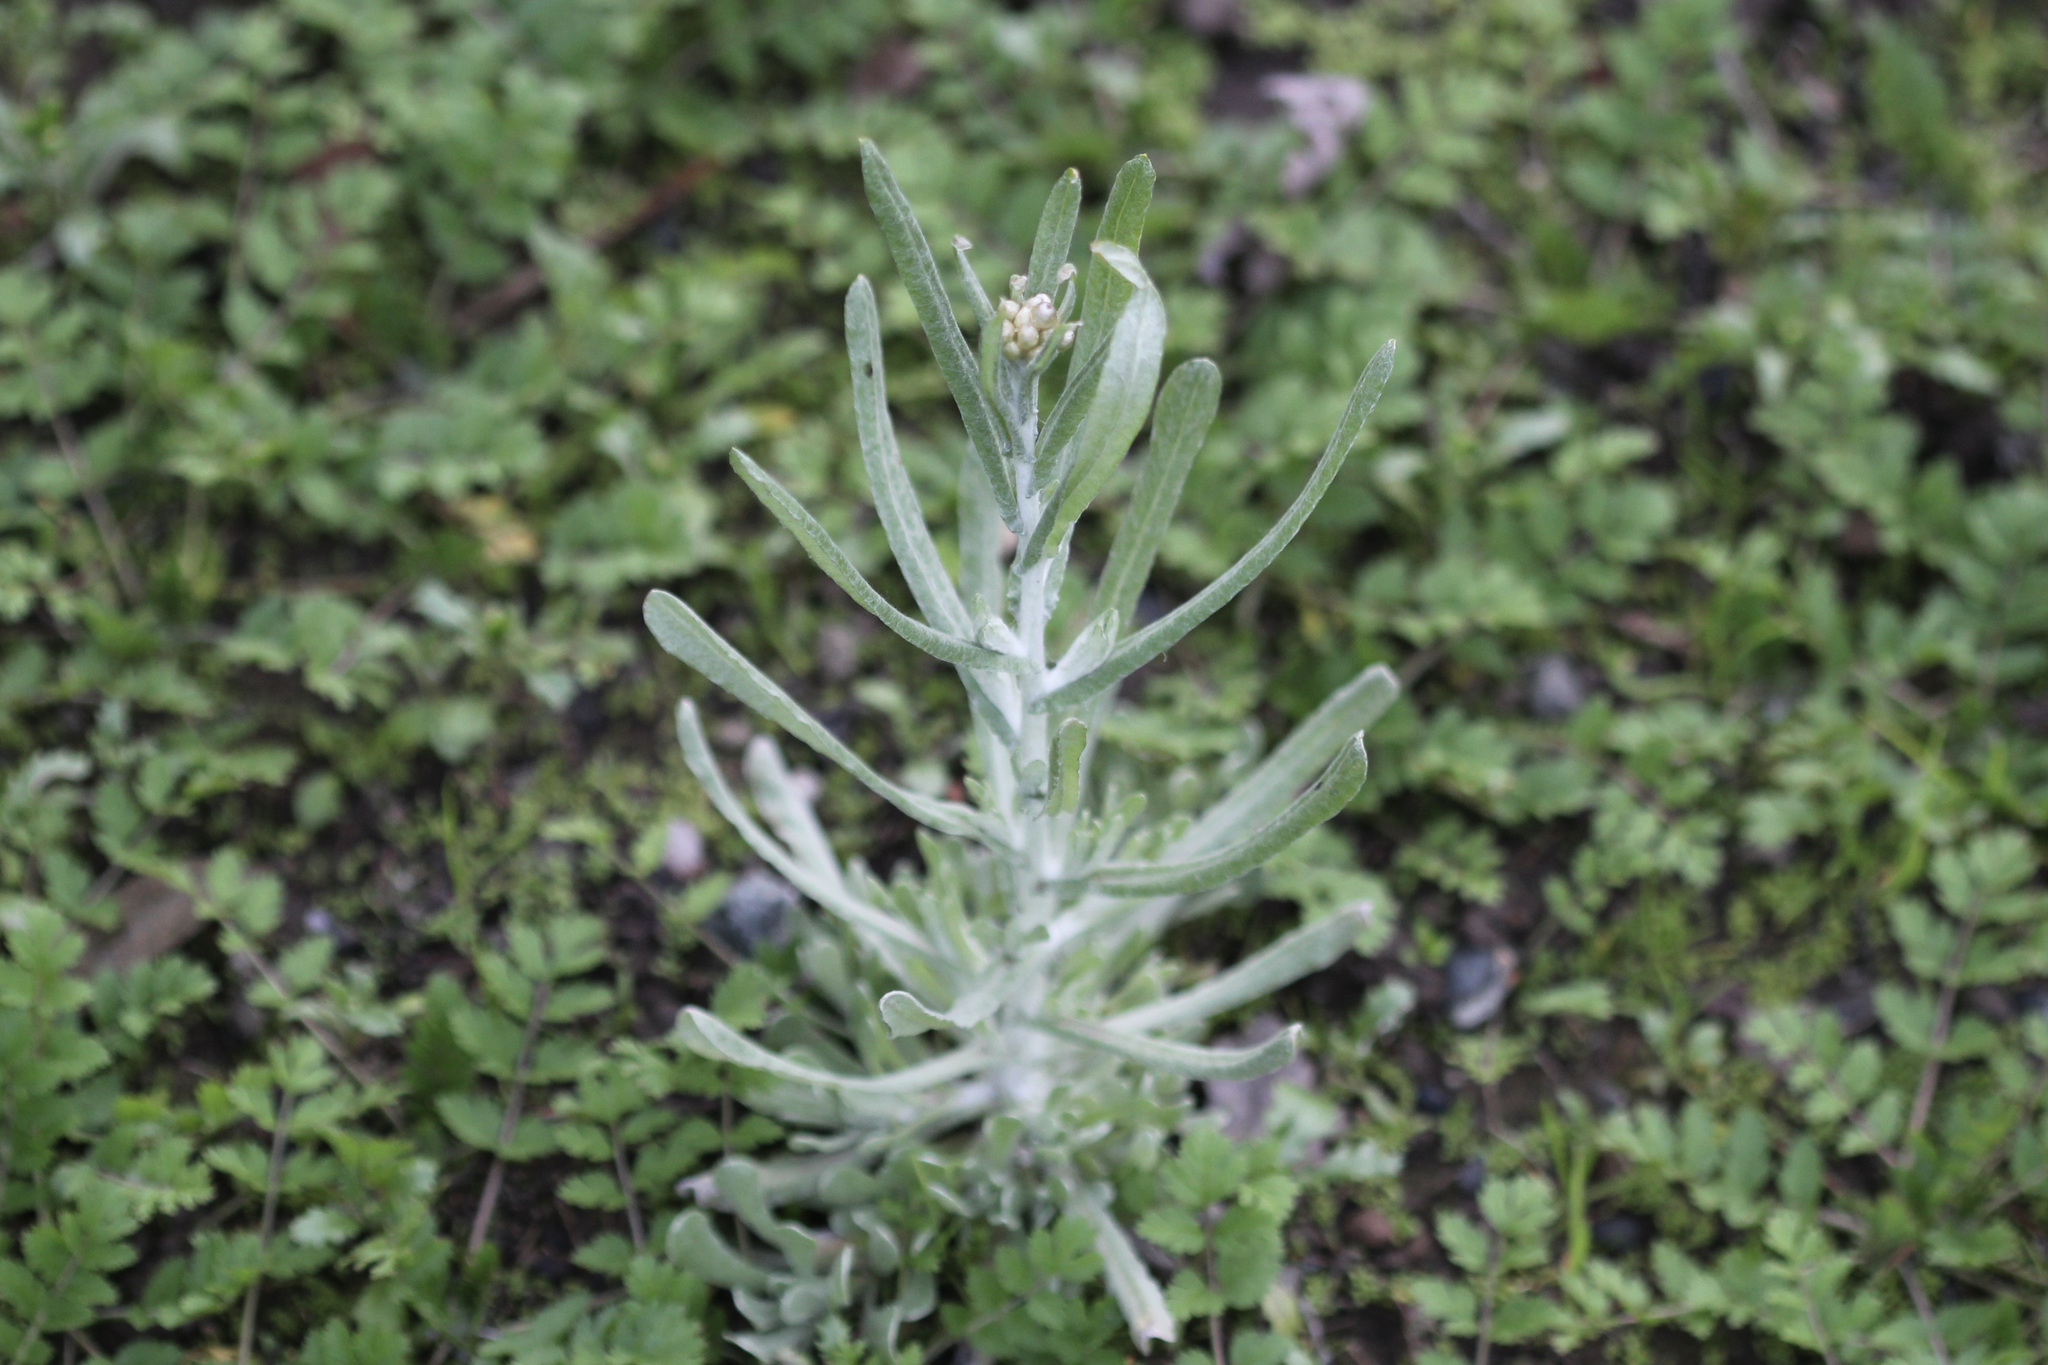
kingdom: Plantae
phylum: Tracheophyta
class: Magnoliopsida
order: Asterales
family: Asteraceae
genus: Helichrysum
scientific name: Helichrysum luteoalbum
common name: Daisy
